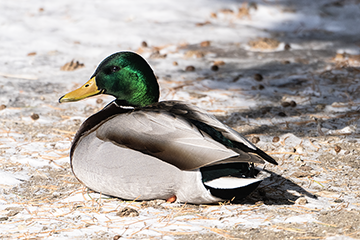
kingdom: Animalia
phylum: Chordata
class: Aves
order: Anseriformes
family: Anatidae
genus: Anas
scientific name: Anas platyrhynchos
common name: Mallard
